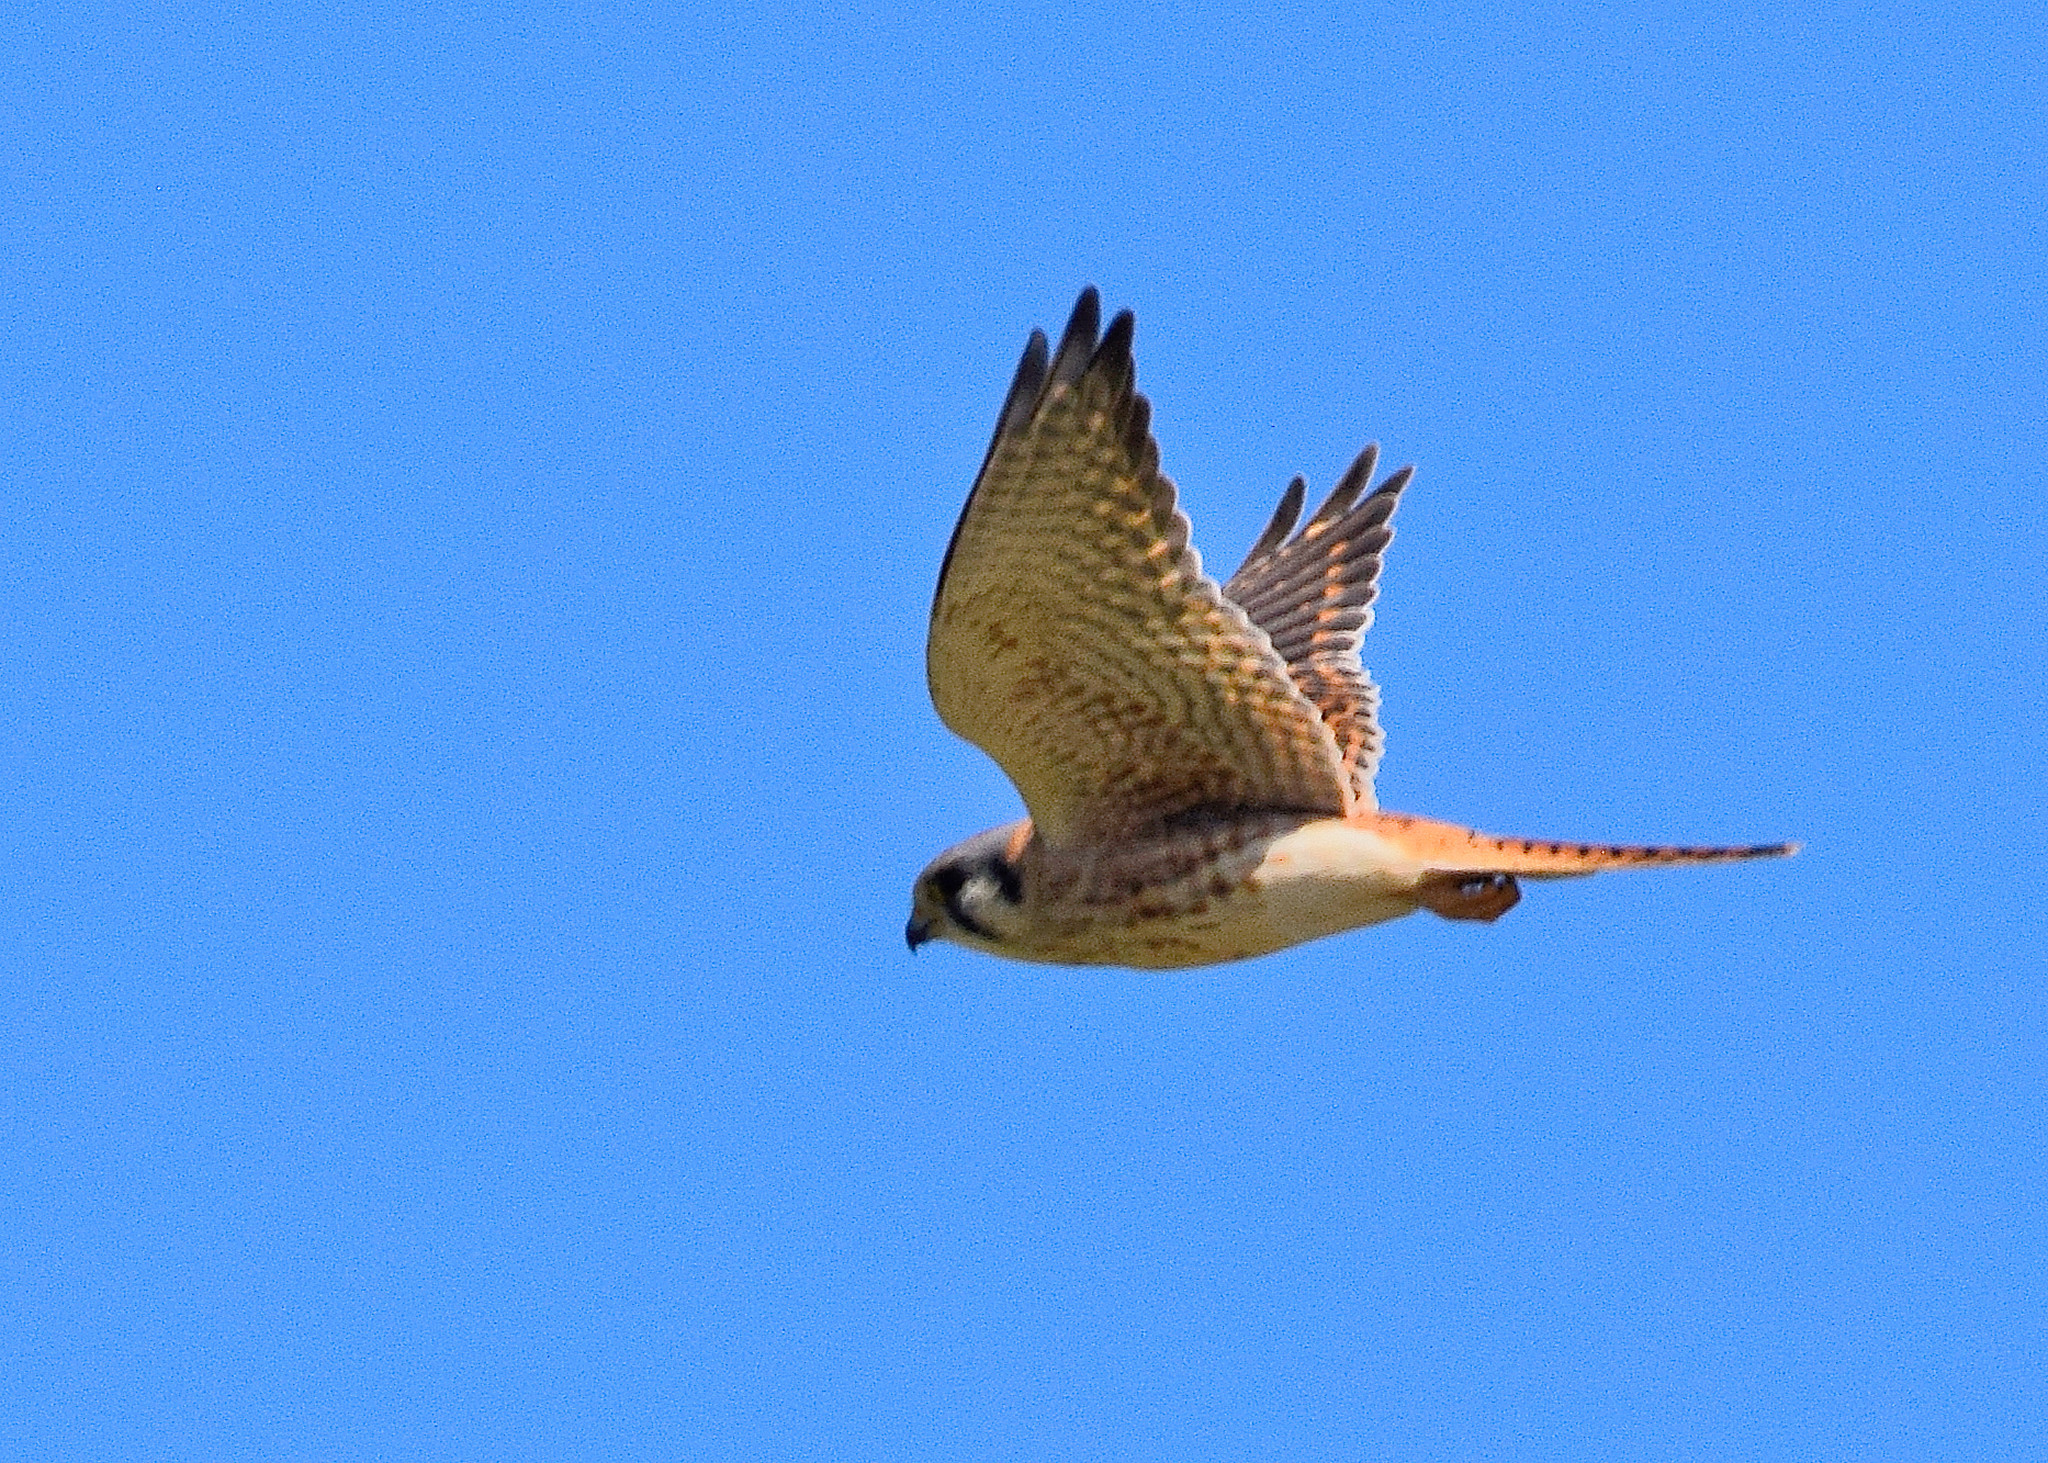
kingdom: Animalia
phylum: Chordata
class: Aves
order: Falconiformes
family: Falconidae
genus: Falco
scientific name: Falco sparverius
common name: American kestrel
